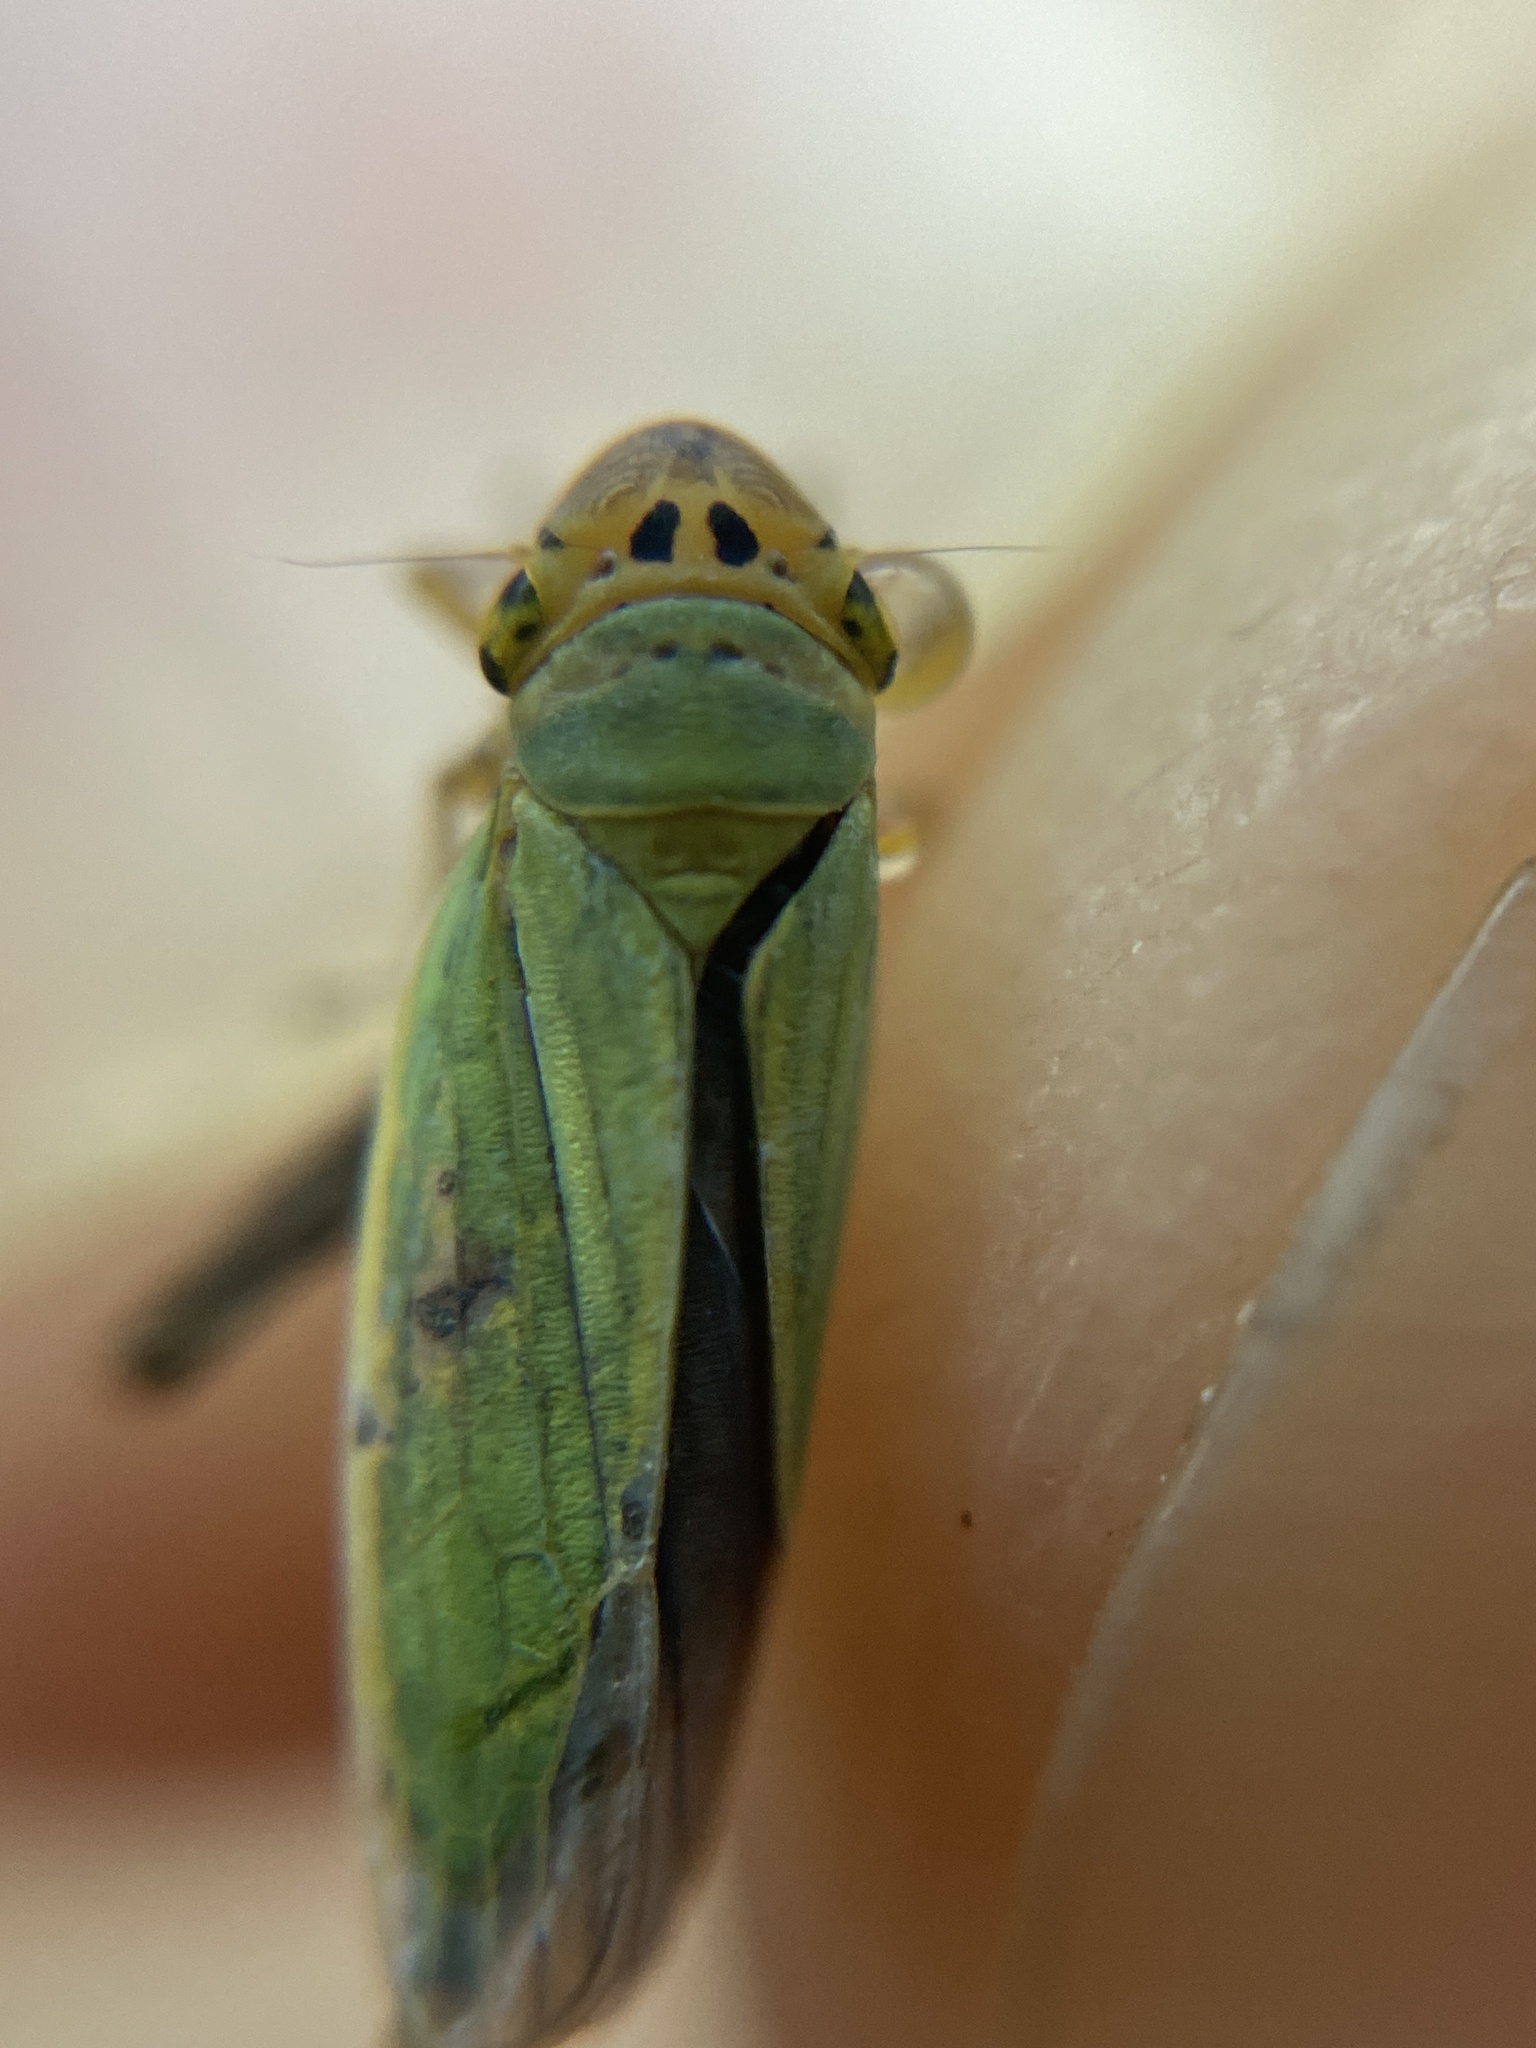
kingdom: Animalia
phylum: Arthropoda
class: Insecta
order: Hemiptera
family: Cicadellidae
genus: Cicadella
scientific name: Cicadella viridis
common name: Leafhopper
